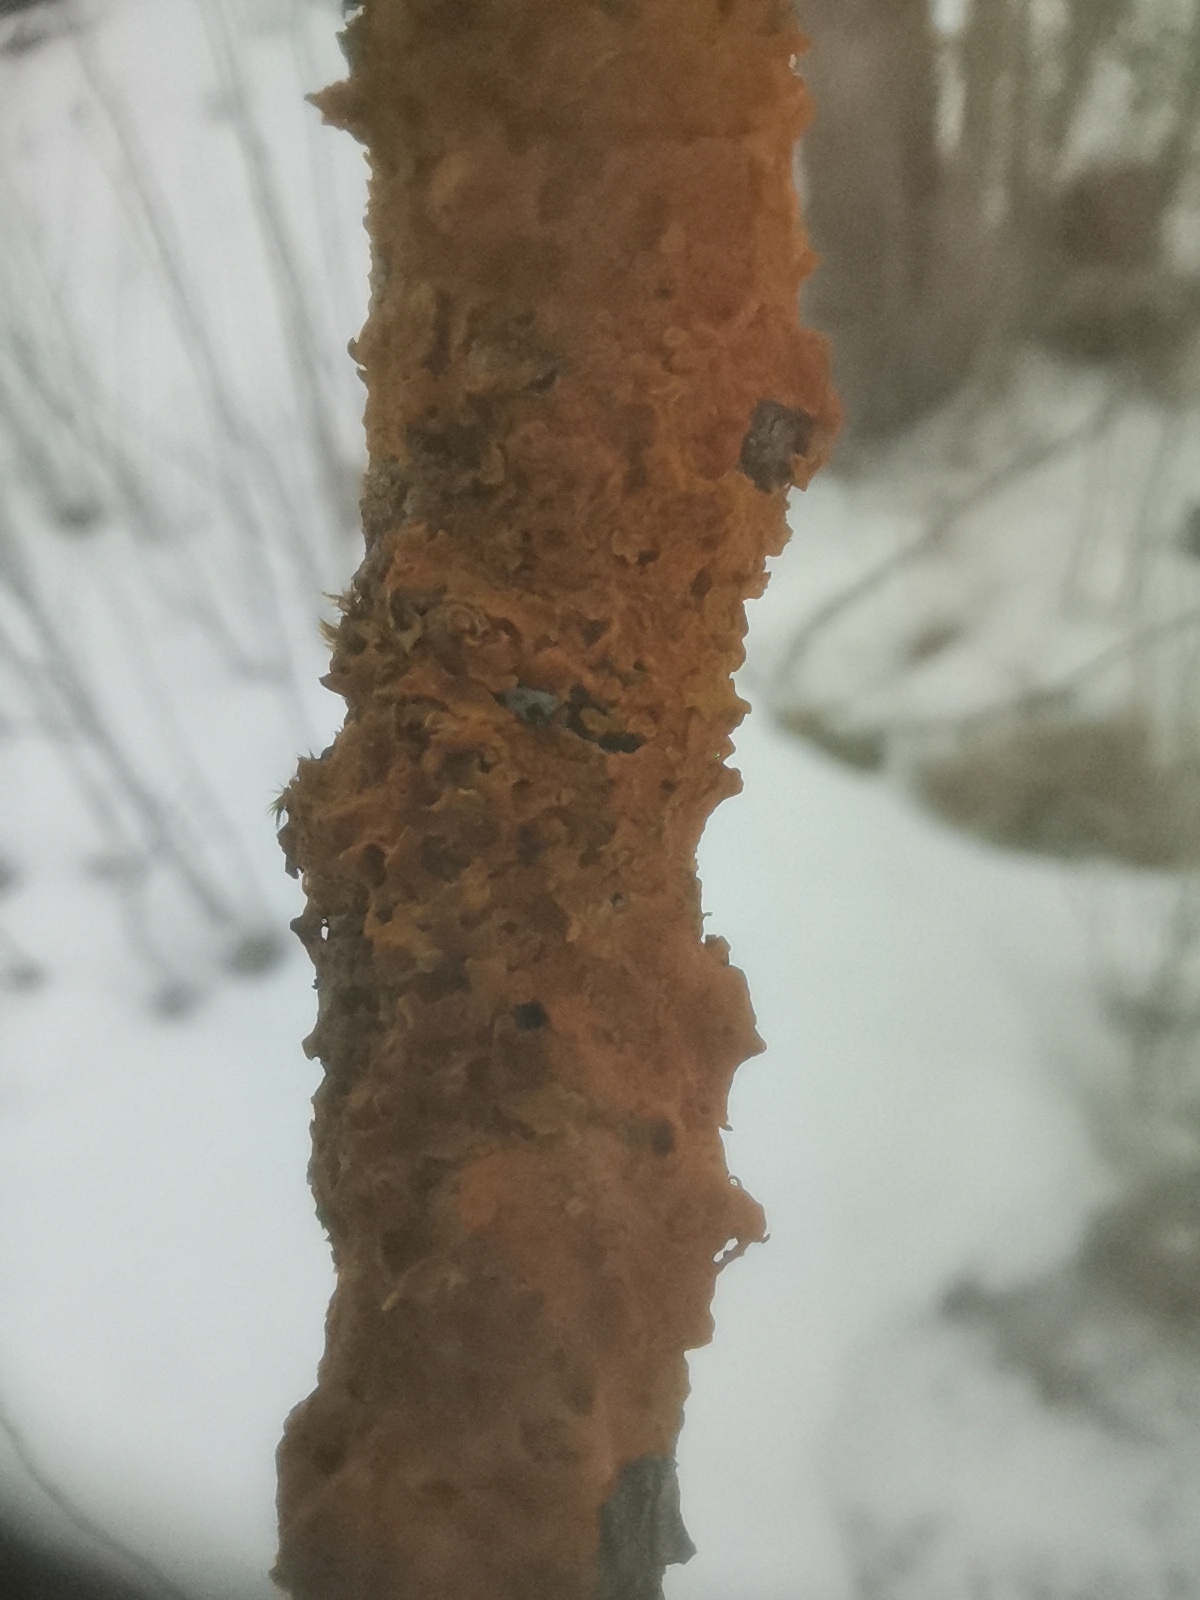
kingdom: Fungi
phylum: Ascomycota
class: Lecanoromycetes
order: Teloschistales
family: Teloschistaceae
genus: Xanthoria
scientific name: Xanthoria parietina
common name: Common orange lichen
